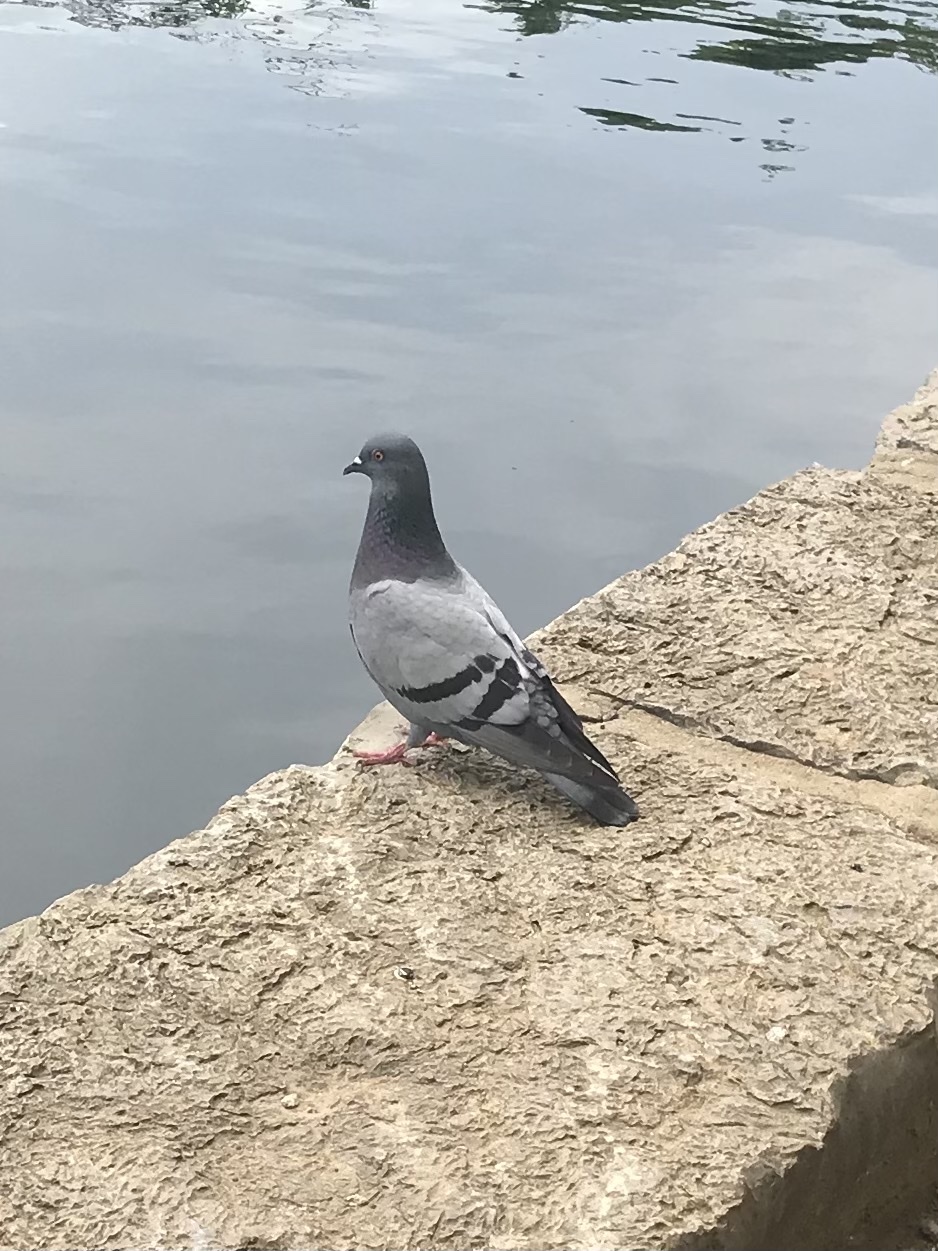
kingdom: Animalia
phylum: Chordata
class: Aves
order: Columbiformes
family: Columbidae
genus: Columba
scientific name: Columba livia
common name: Rock pigeon
